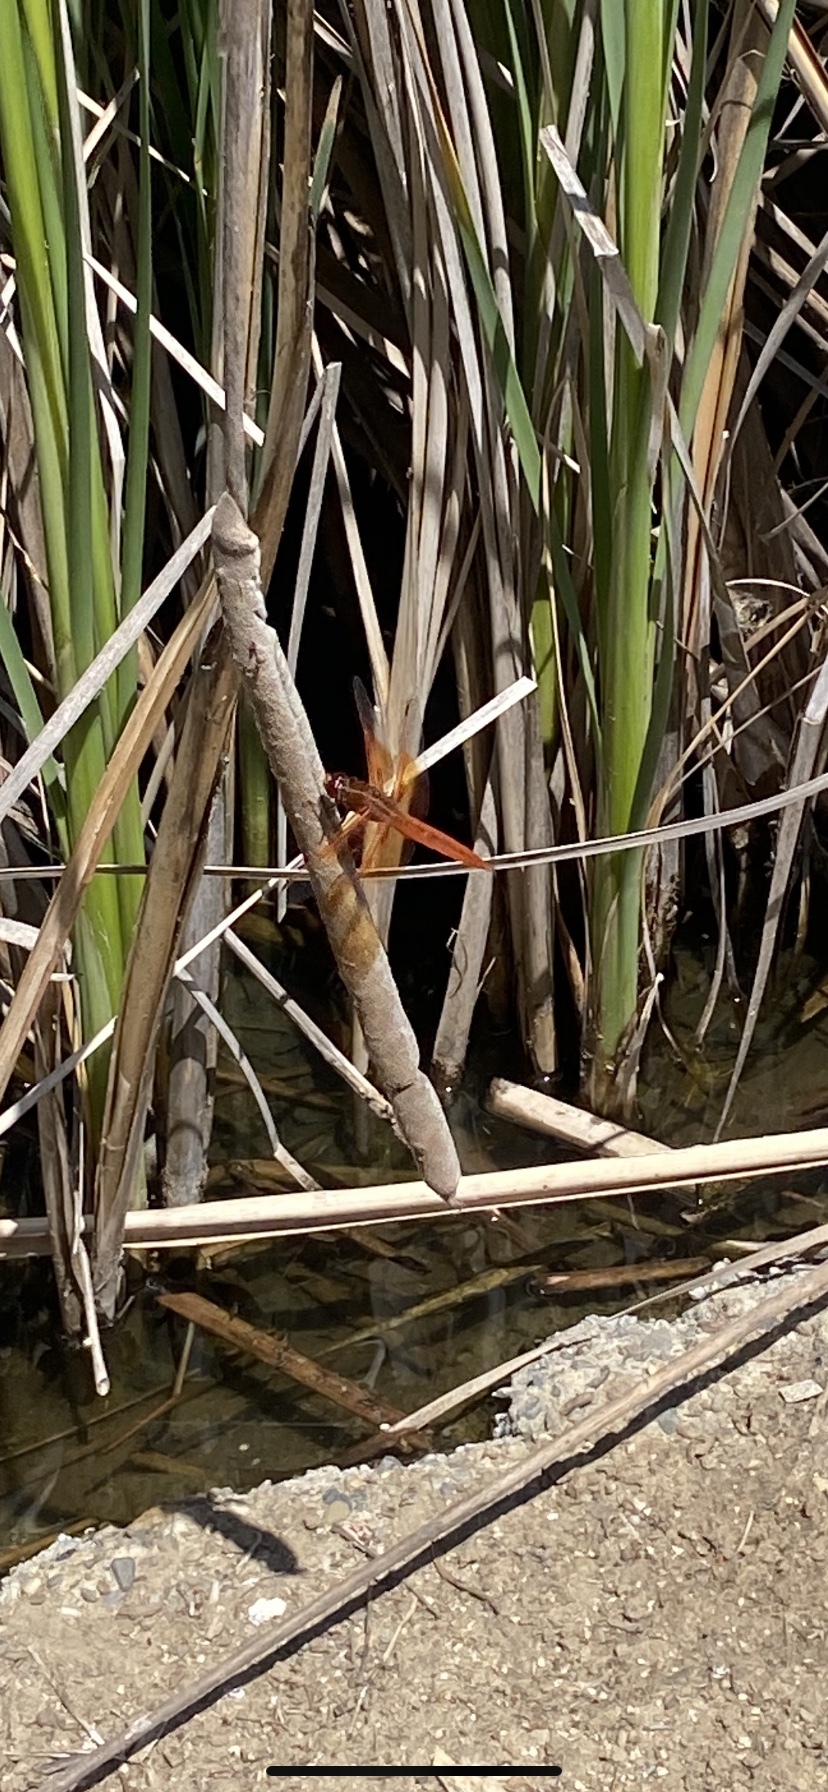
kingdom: Animalia
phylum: Arthropoda
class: Insecta
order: Odonata
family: Libellulidae
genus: Libellula
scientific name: Libellula saturata
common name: Flame skimmer
